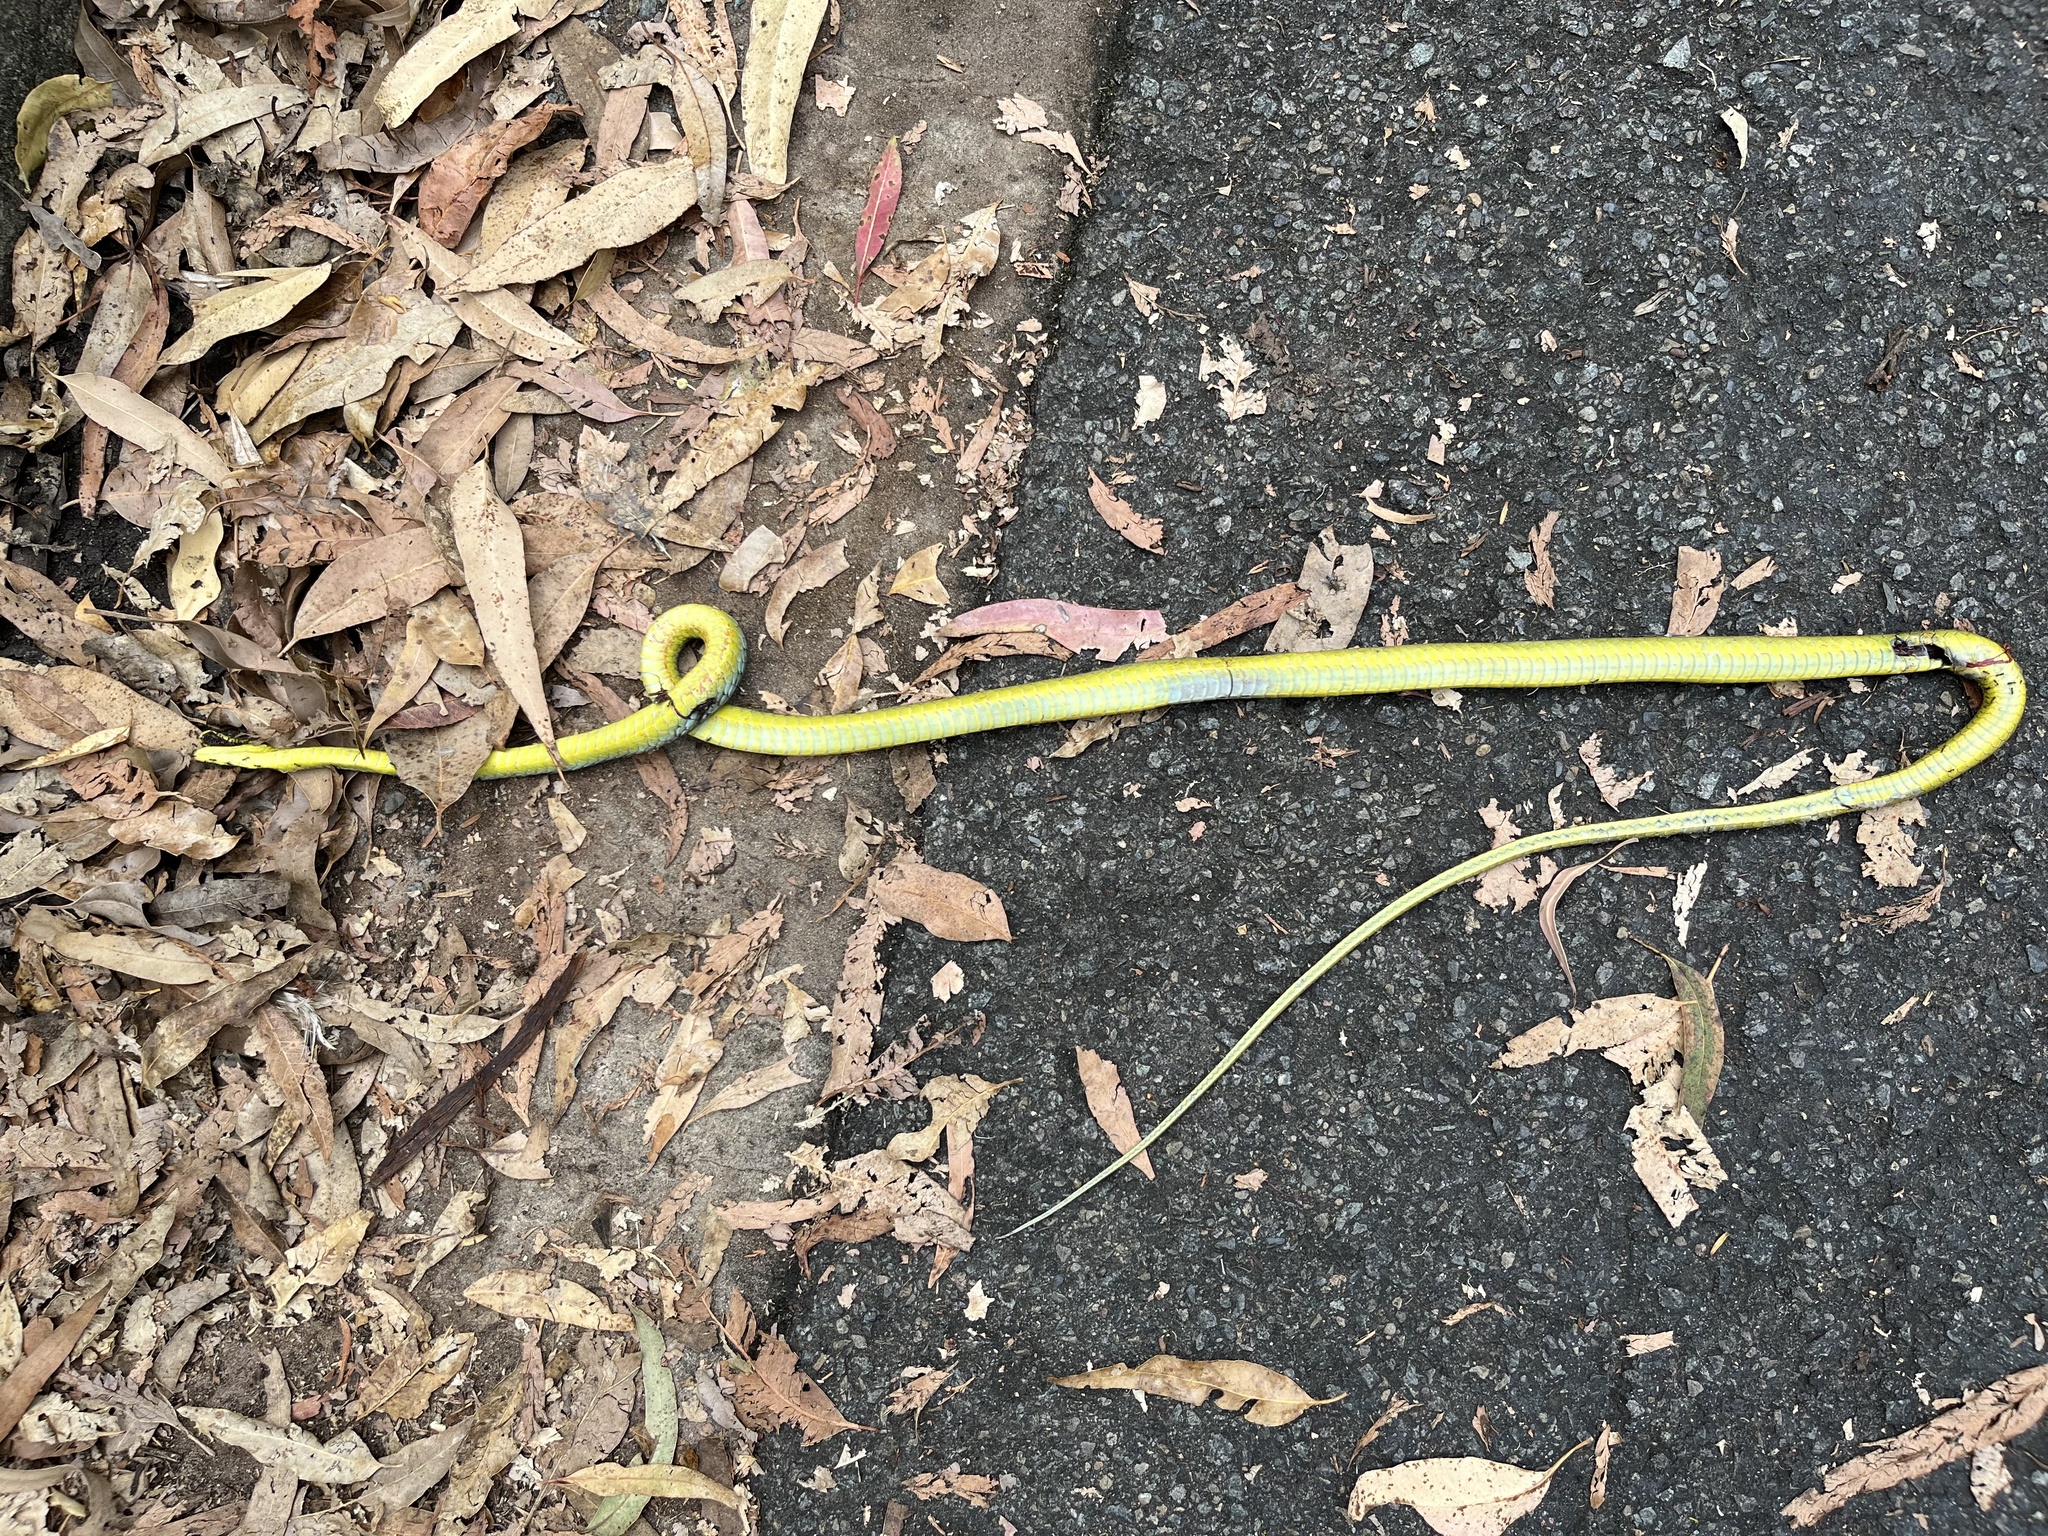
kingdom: Animalia
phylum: Chordata
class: Squamata
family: Colubridae
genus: Dendrelaphis
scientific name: Dendrelaphis punctulatus
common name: Common tree snake
